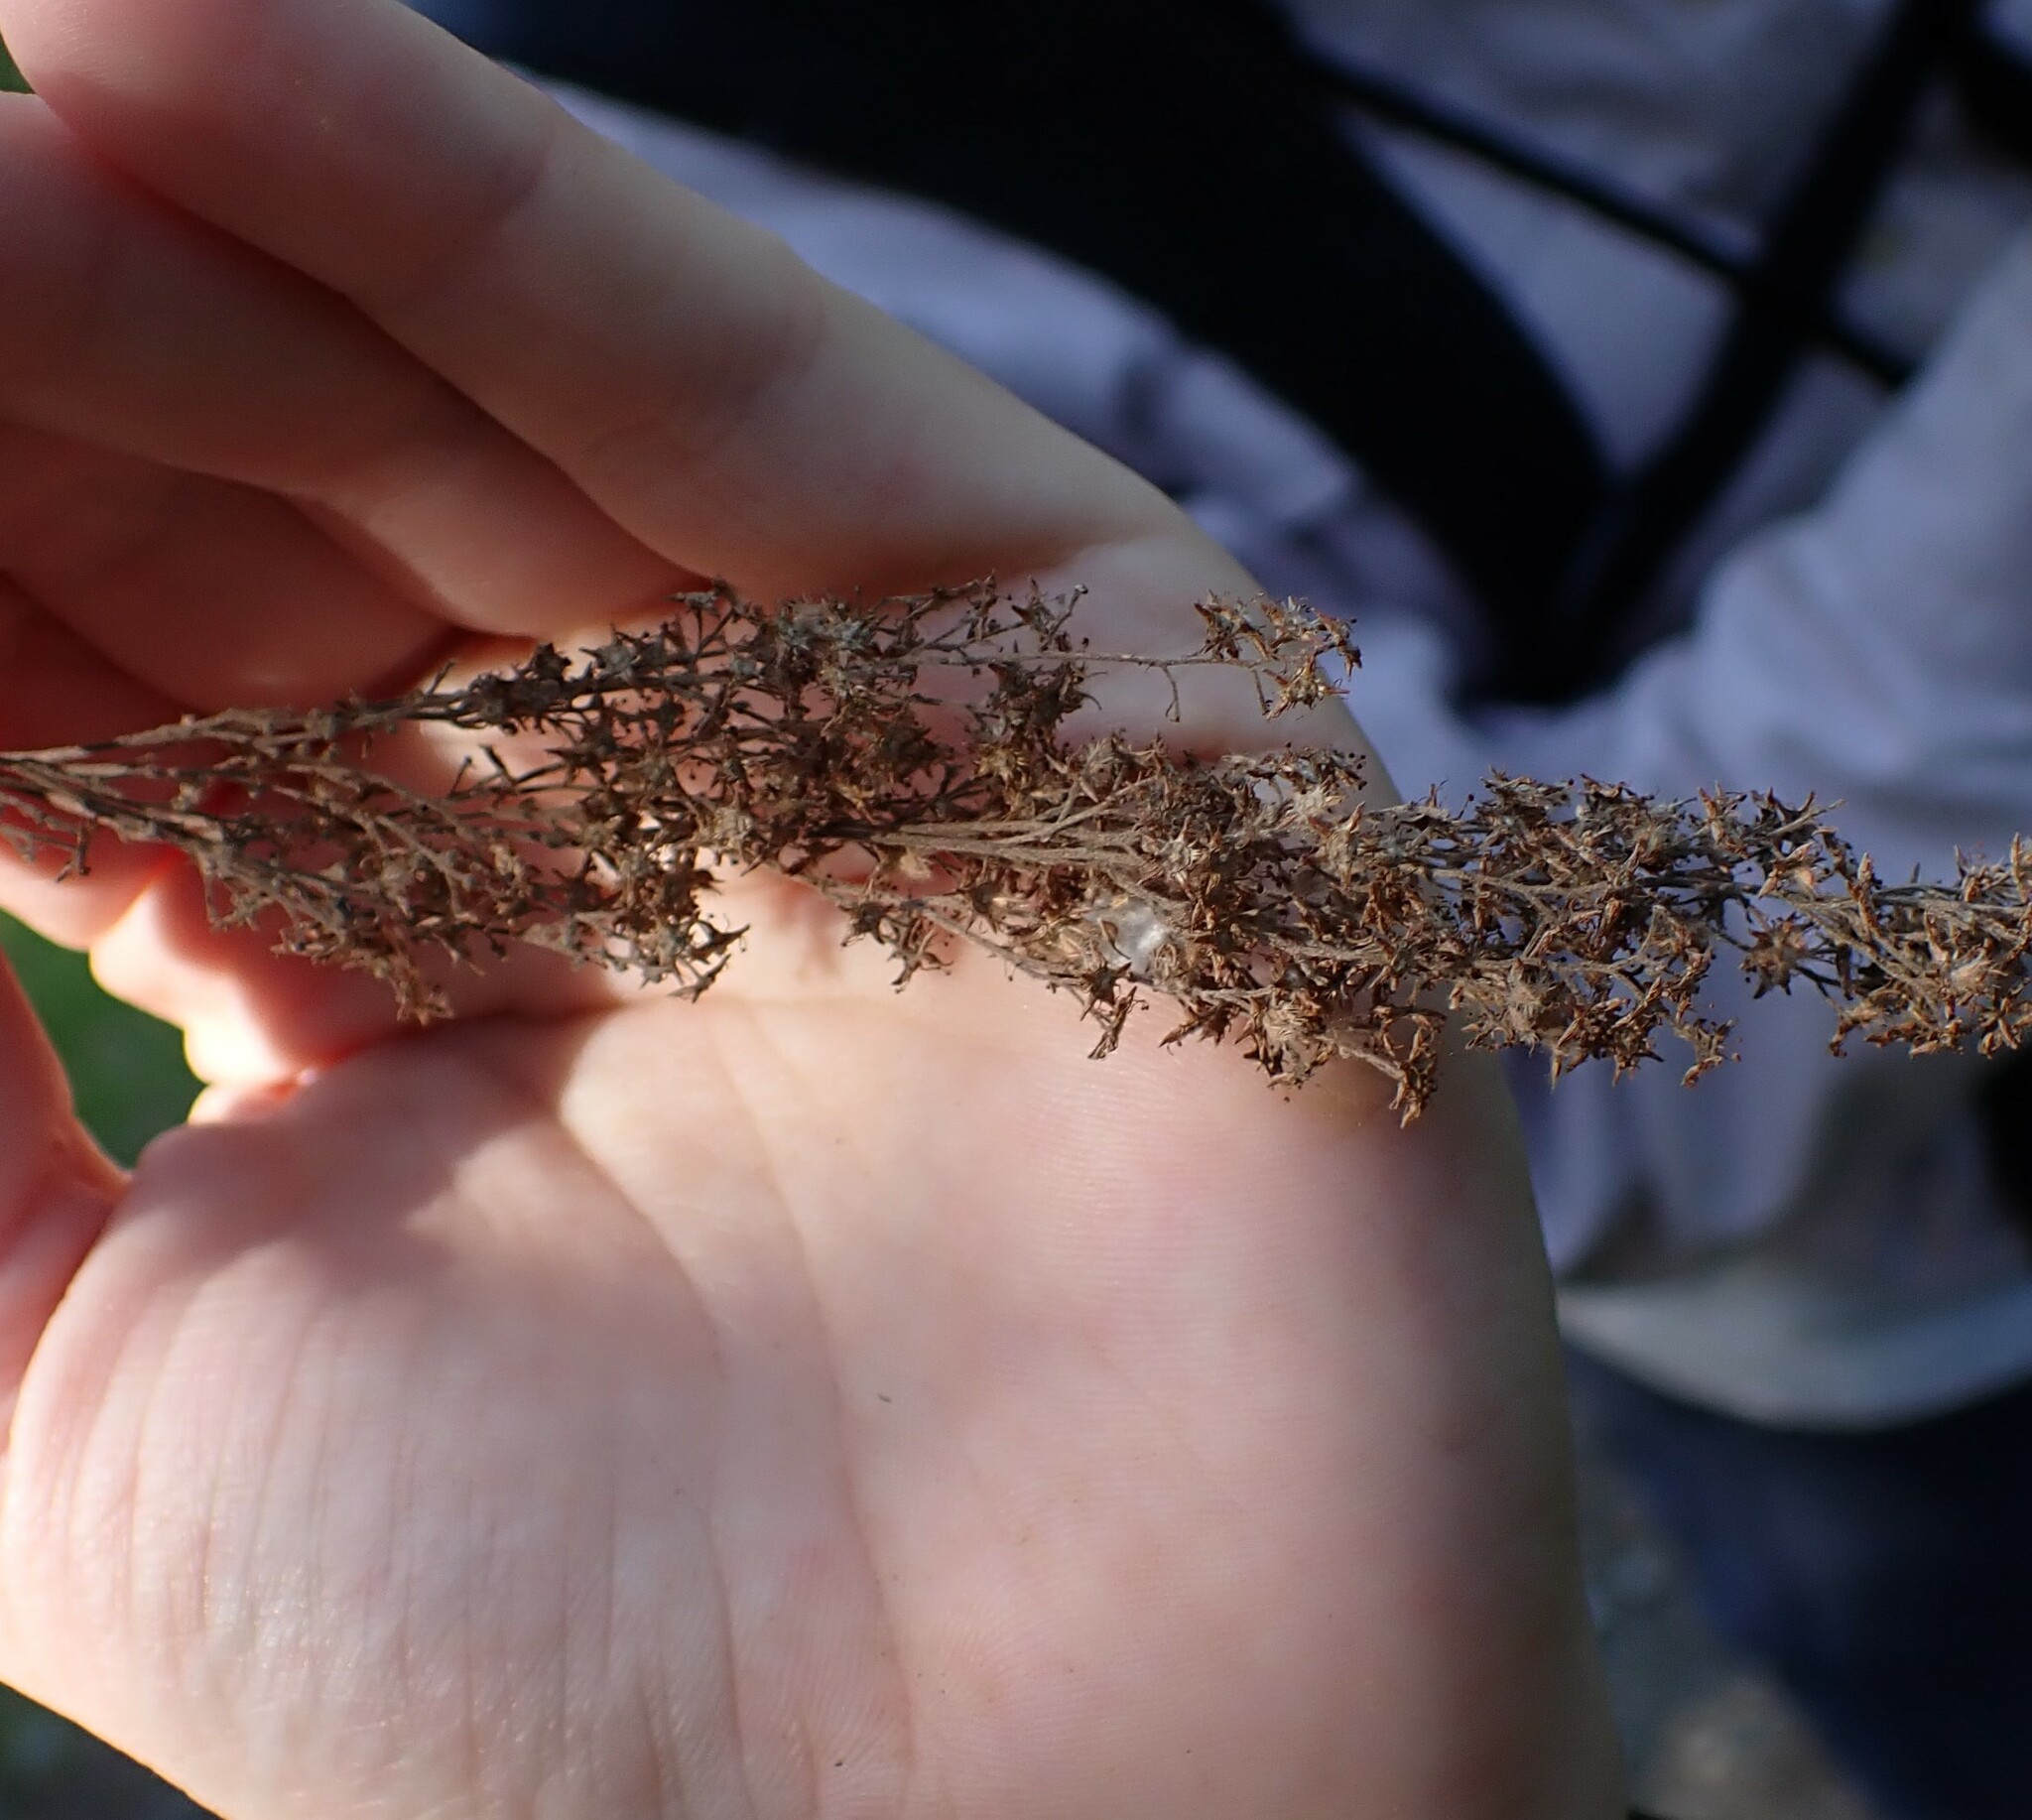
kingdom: Plantae
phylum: Tracheophyta
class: Magnoliopsida
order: Rosales
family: Rosaceae
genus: Holodiscus
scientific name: Holodiscus discolor
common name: Oceanspray
